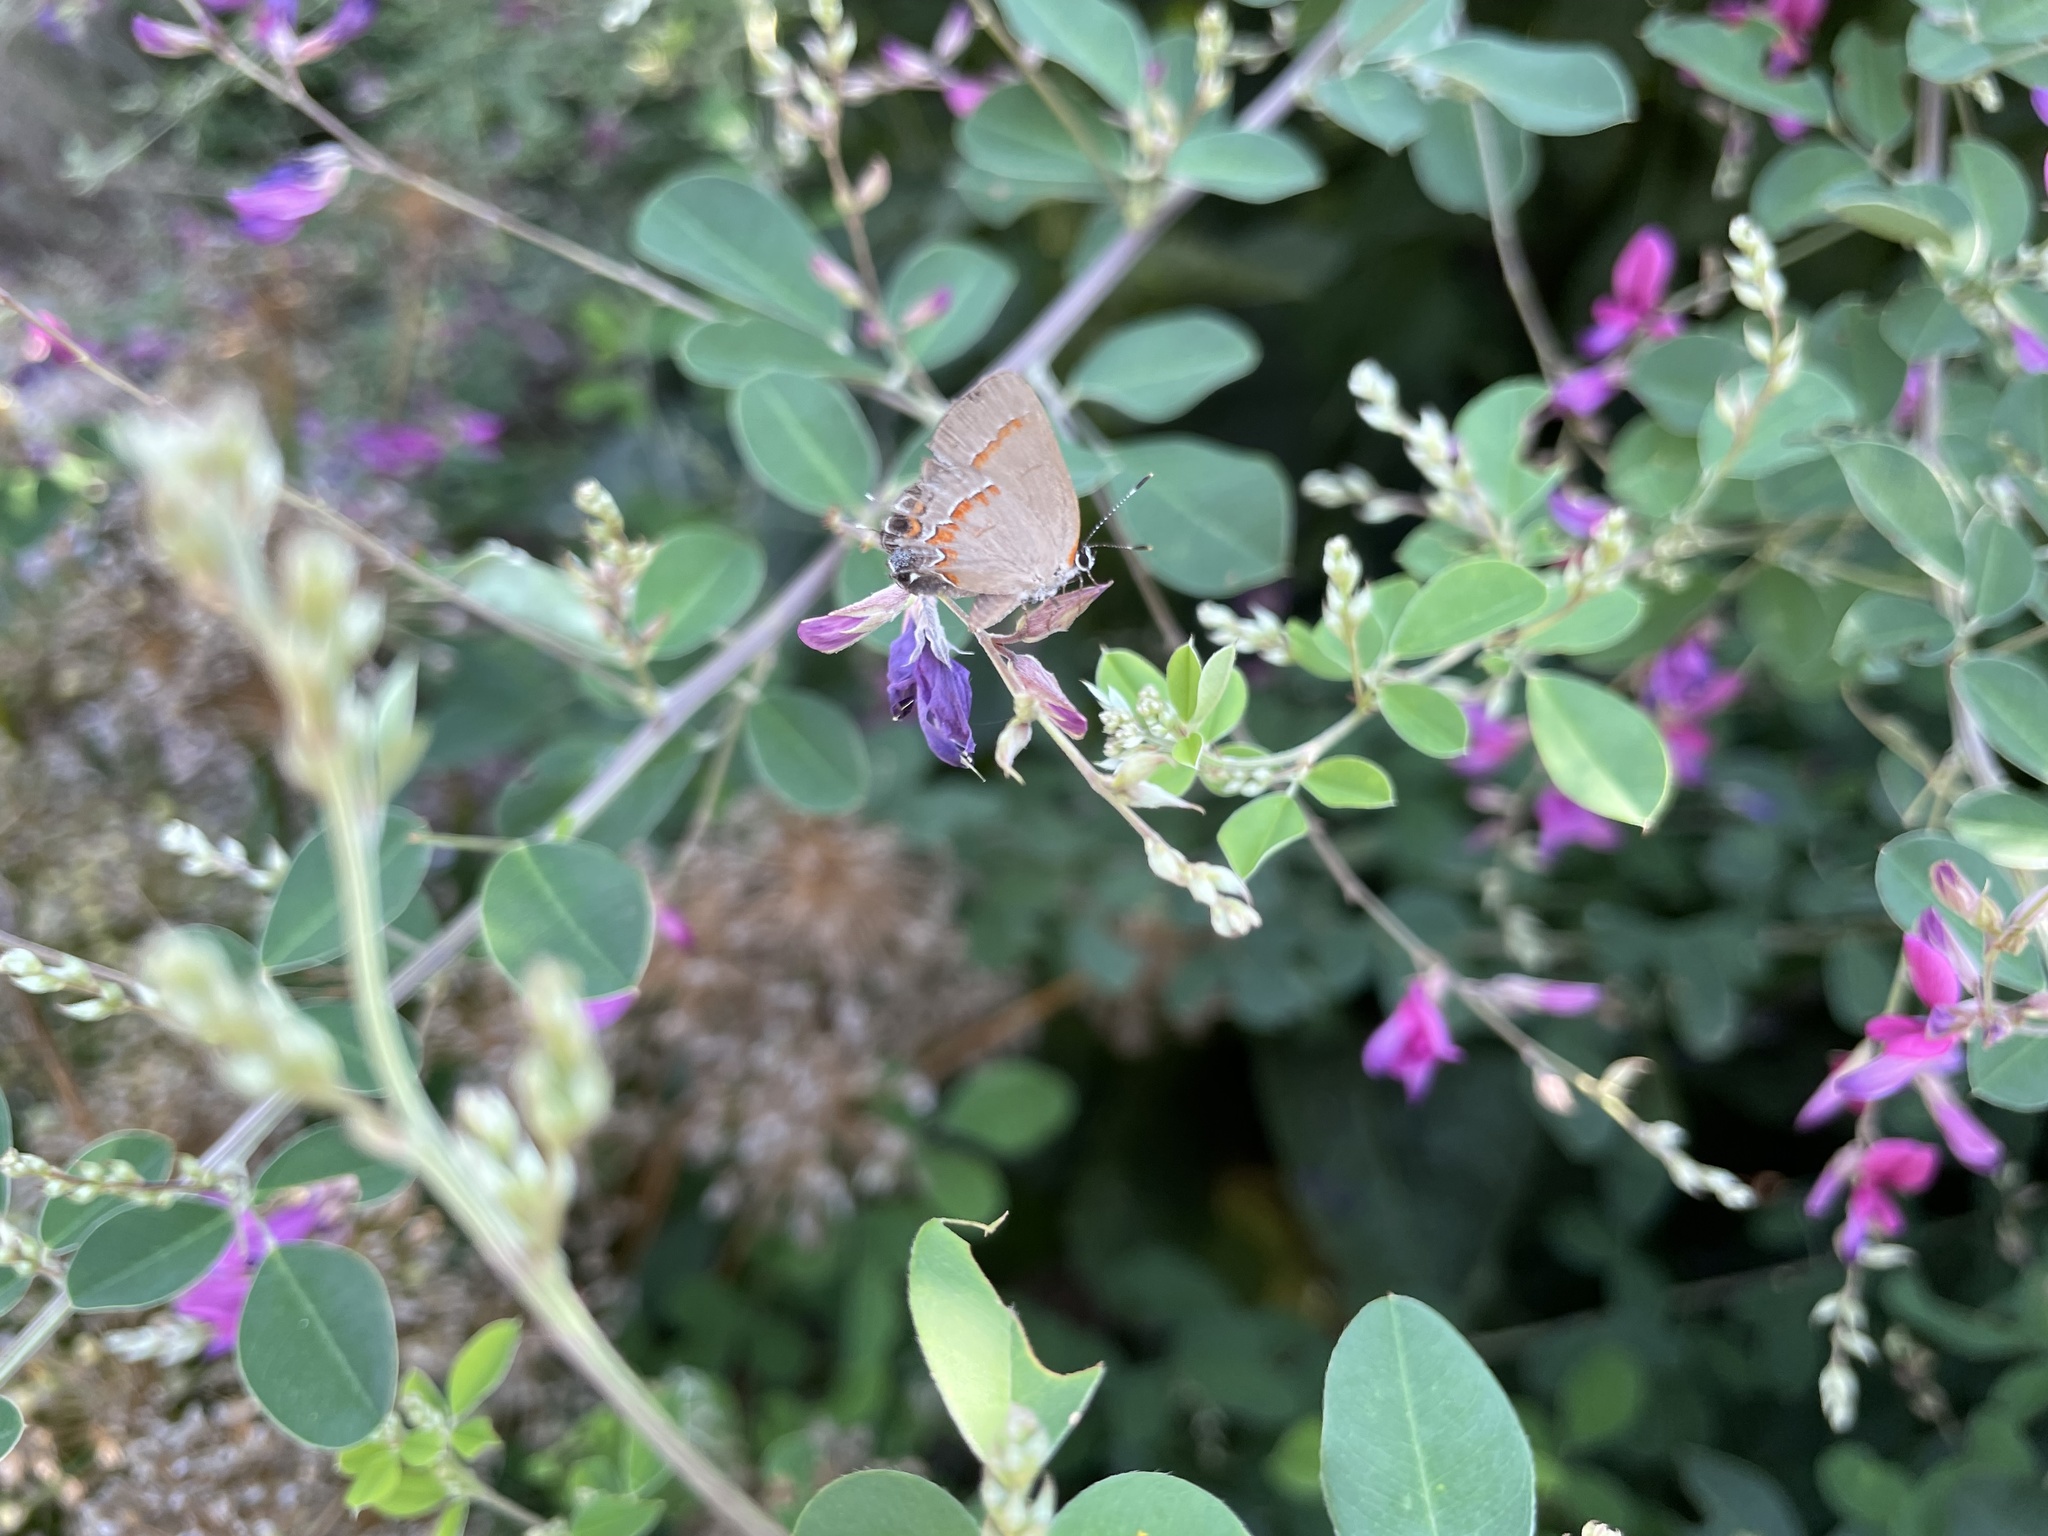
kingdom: Animalia
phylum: Arthropoda
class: Insecta
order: Lepidoptera
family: Lycaenidae
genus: Calycopis
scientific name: Calycopis cecrops
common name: Red-banded hairstreak
